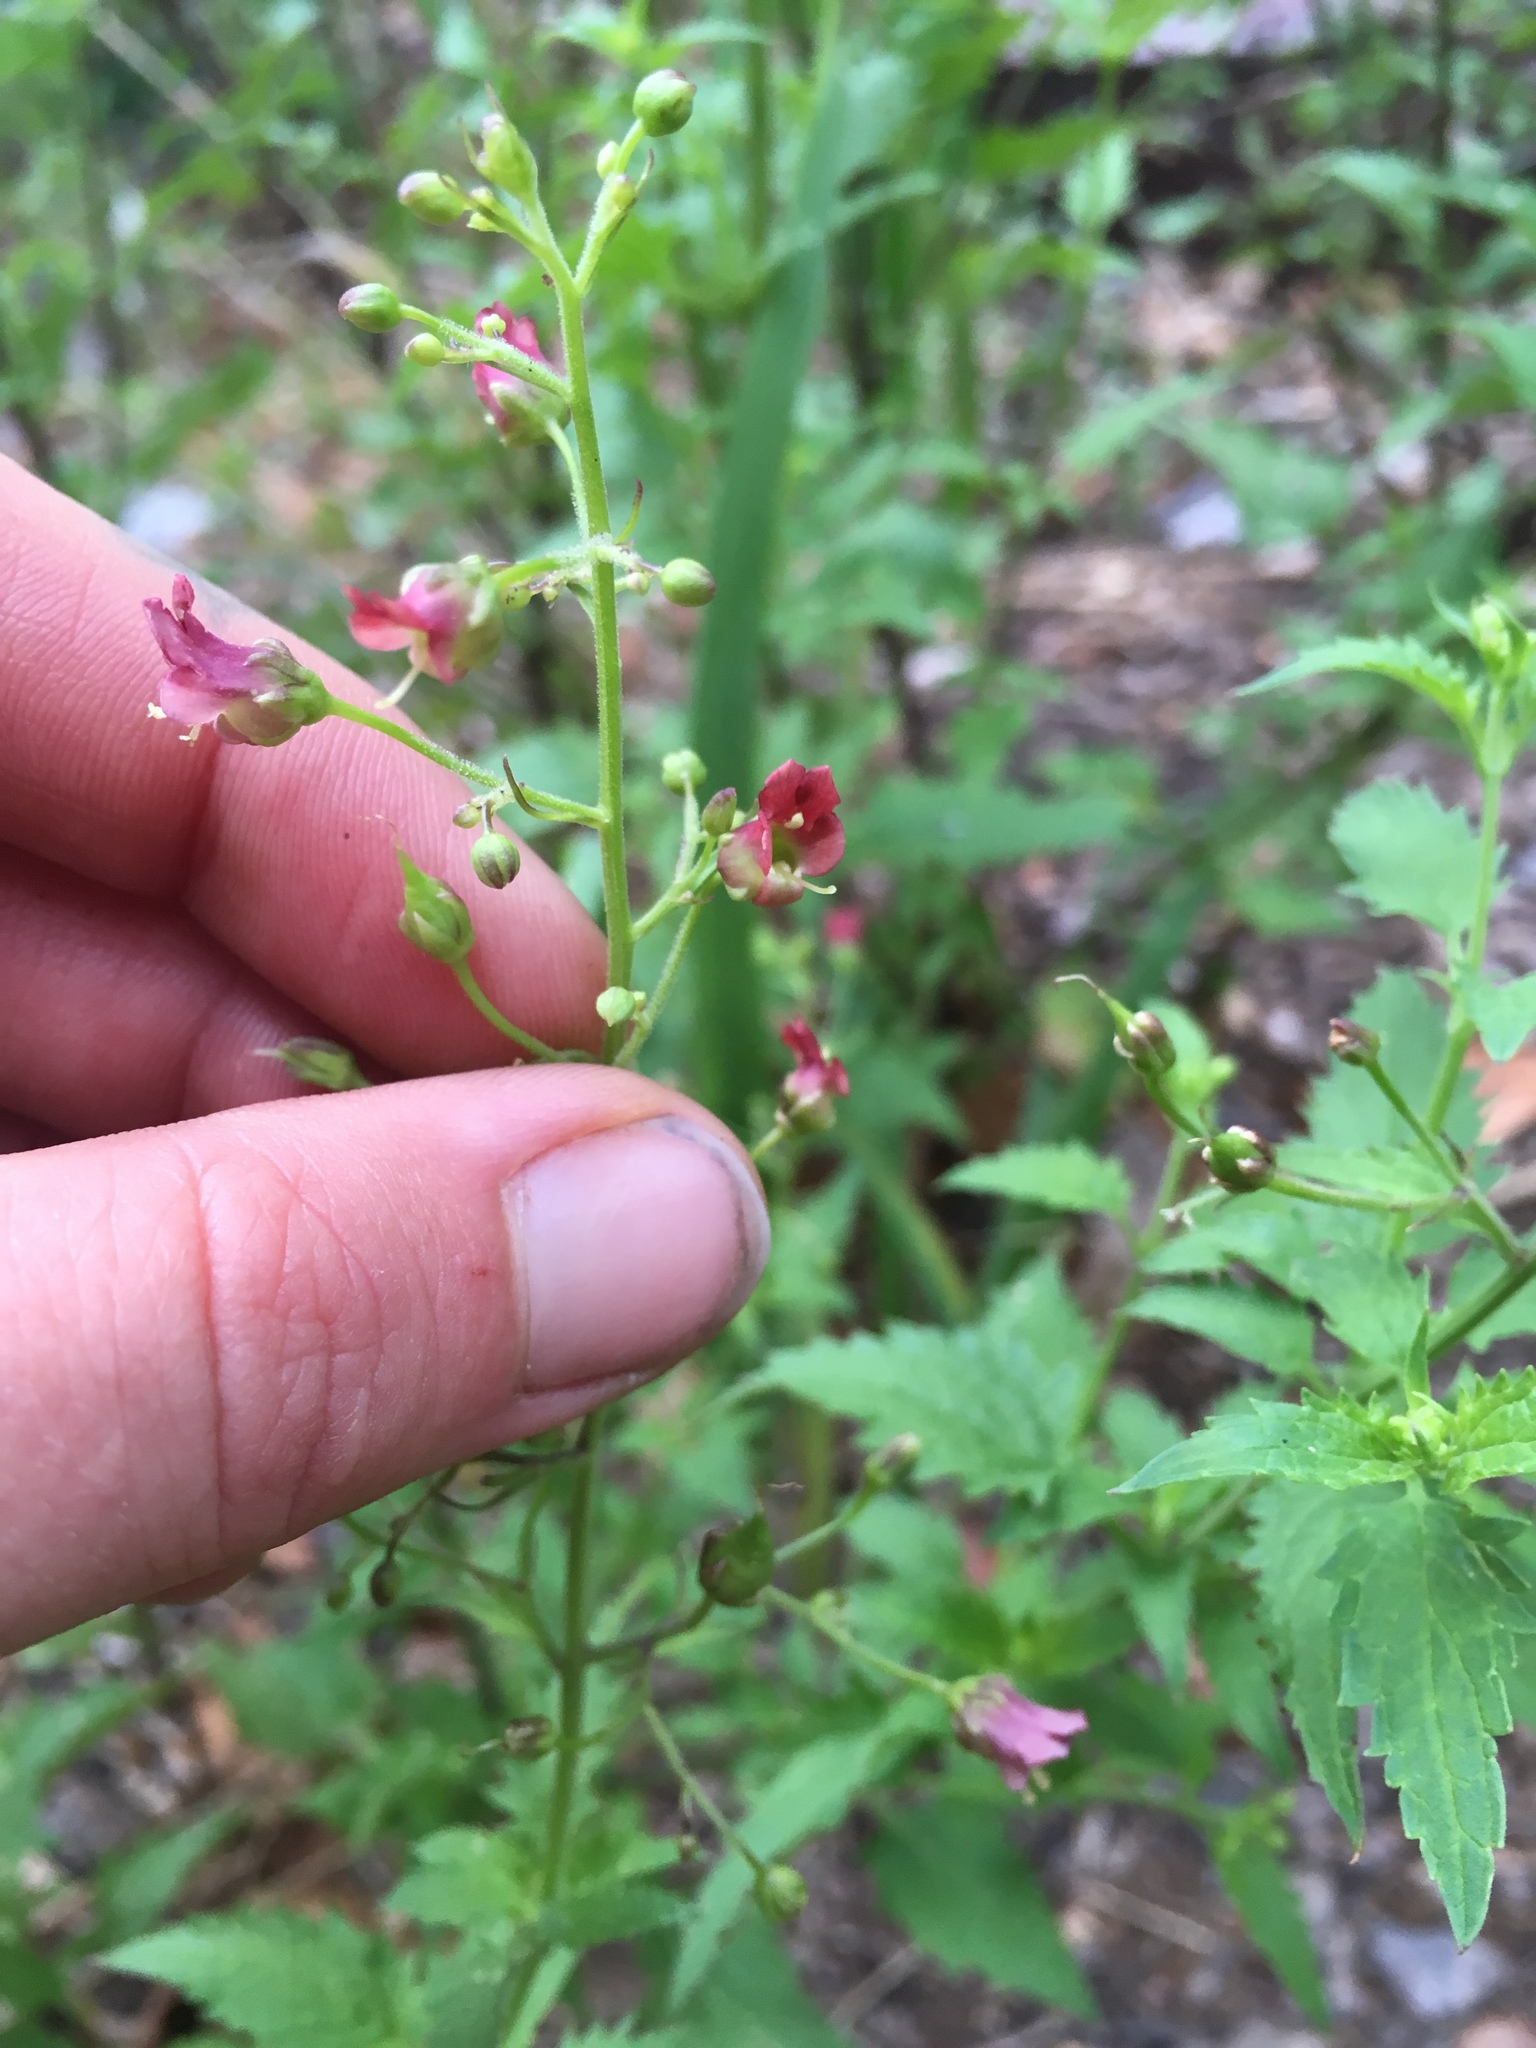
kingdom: Plantae
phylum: Tracheophyta
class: Magnoliopsida
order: Lamiales
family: Scrophulariaceae
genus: Scrophularia
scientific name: Scrophularia parviflora
